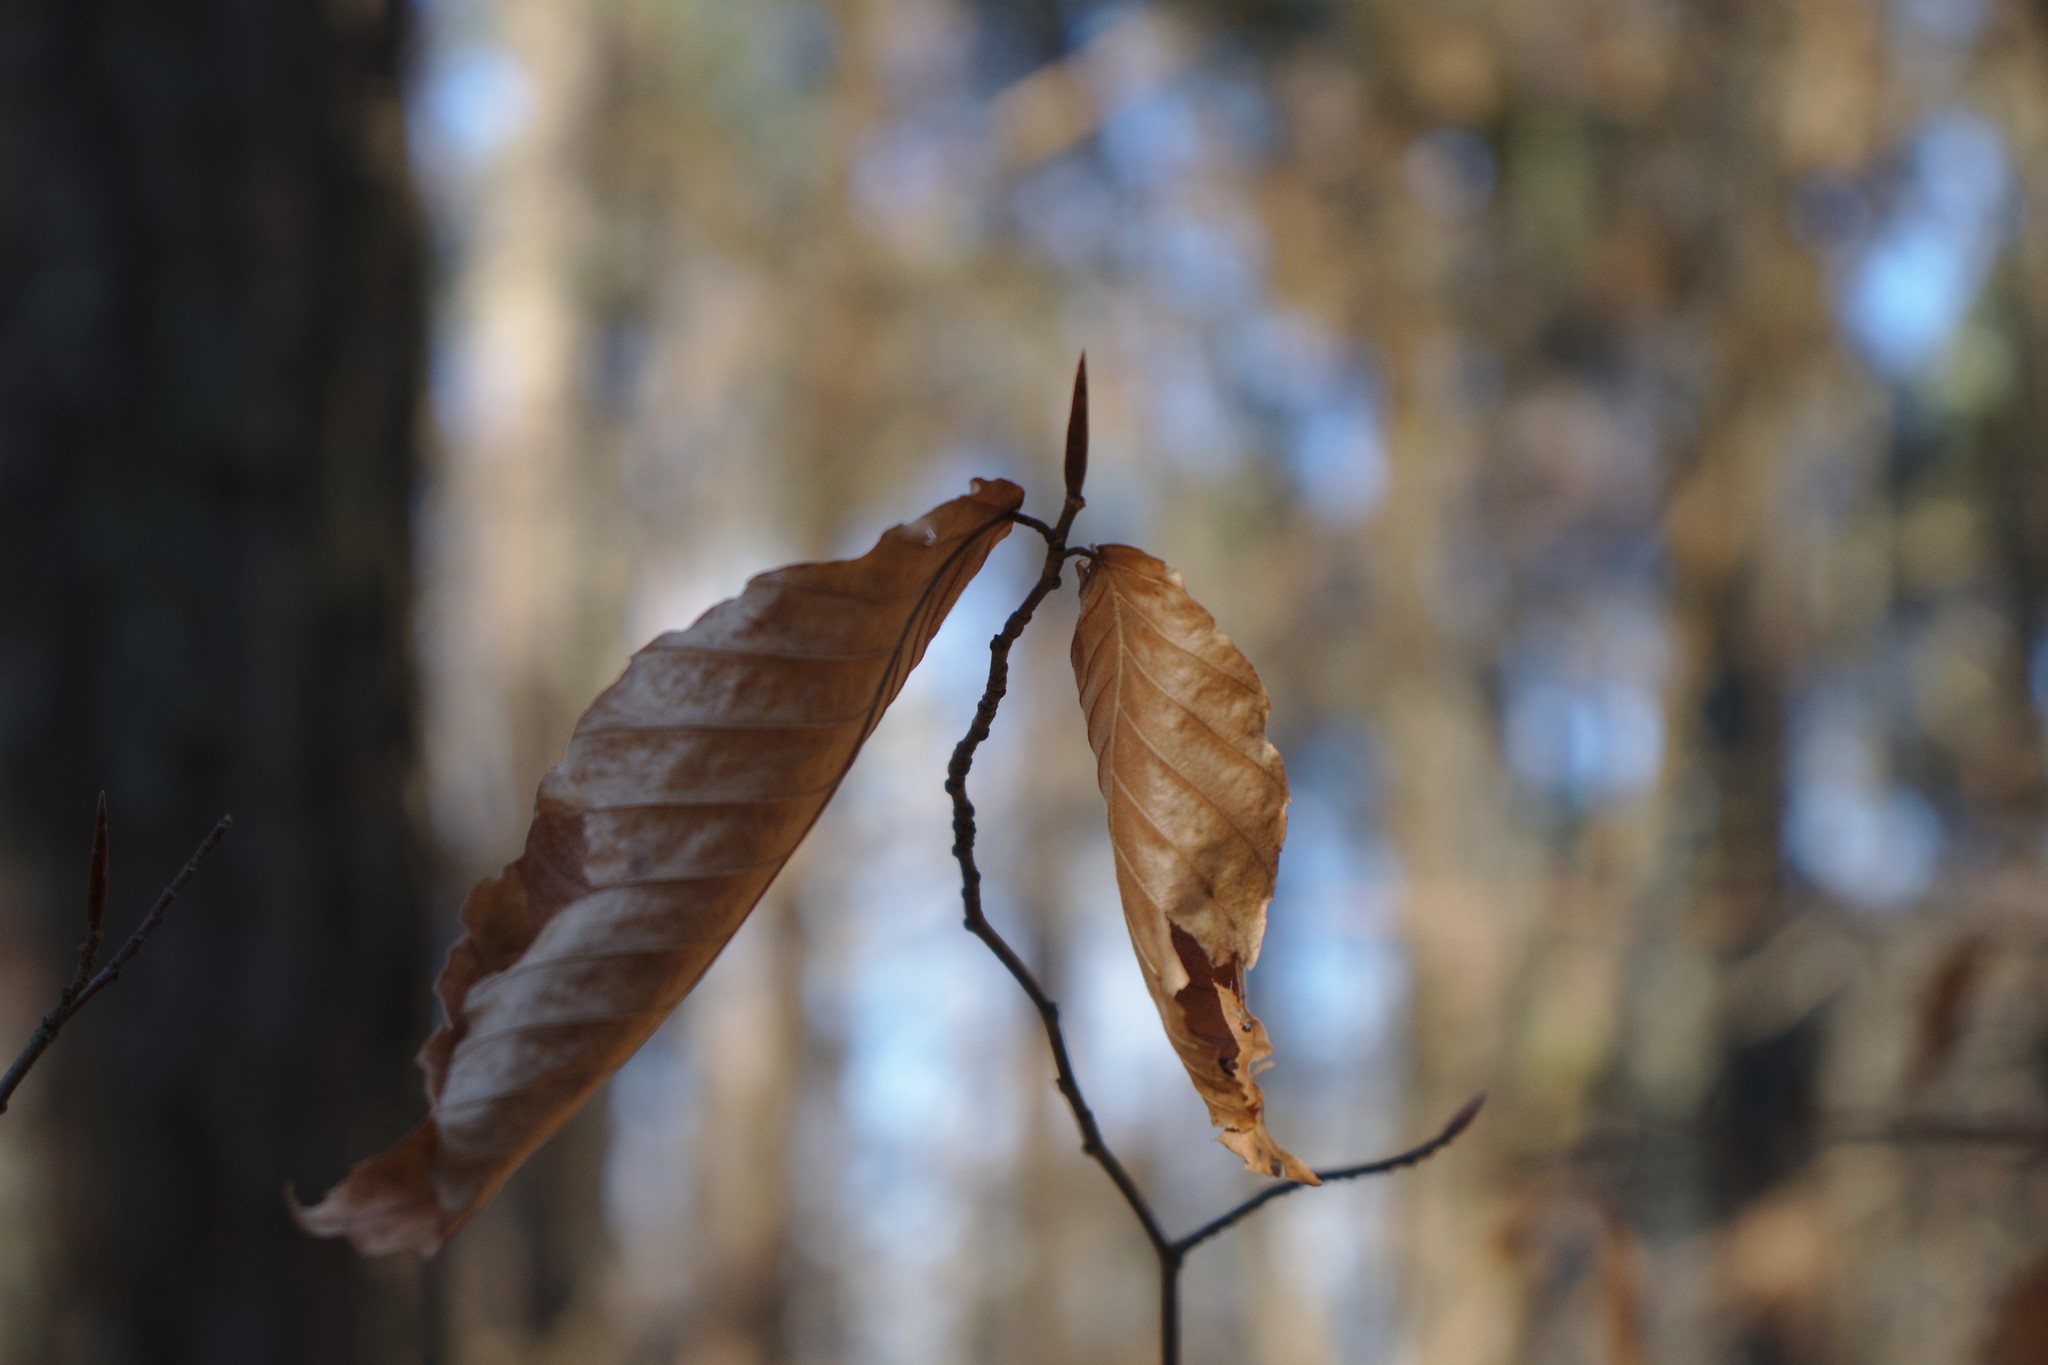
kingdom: Plantae
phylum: Tracheophyta
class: Magnoliopsida
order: Fagales
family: Fagaceae
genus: Fagus
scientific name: Fagus grandifolia
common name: American beech
